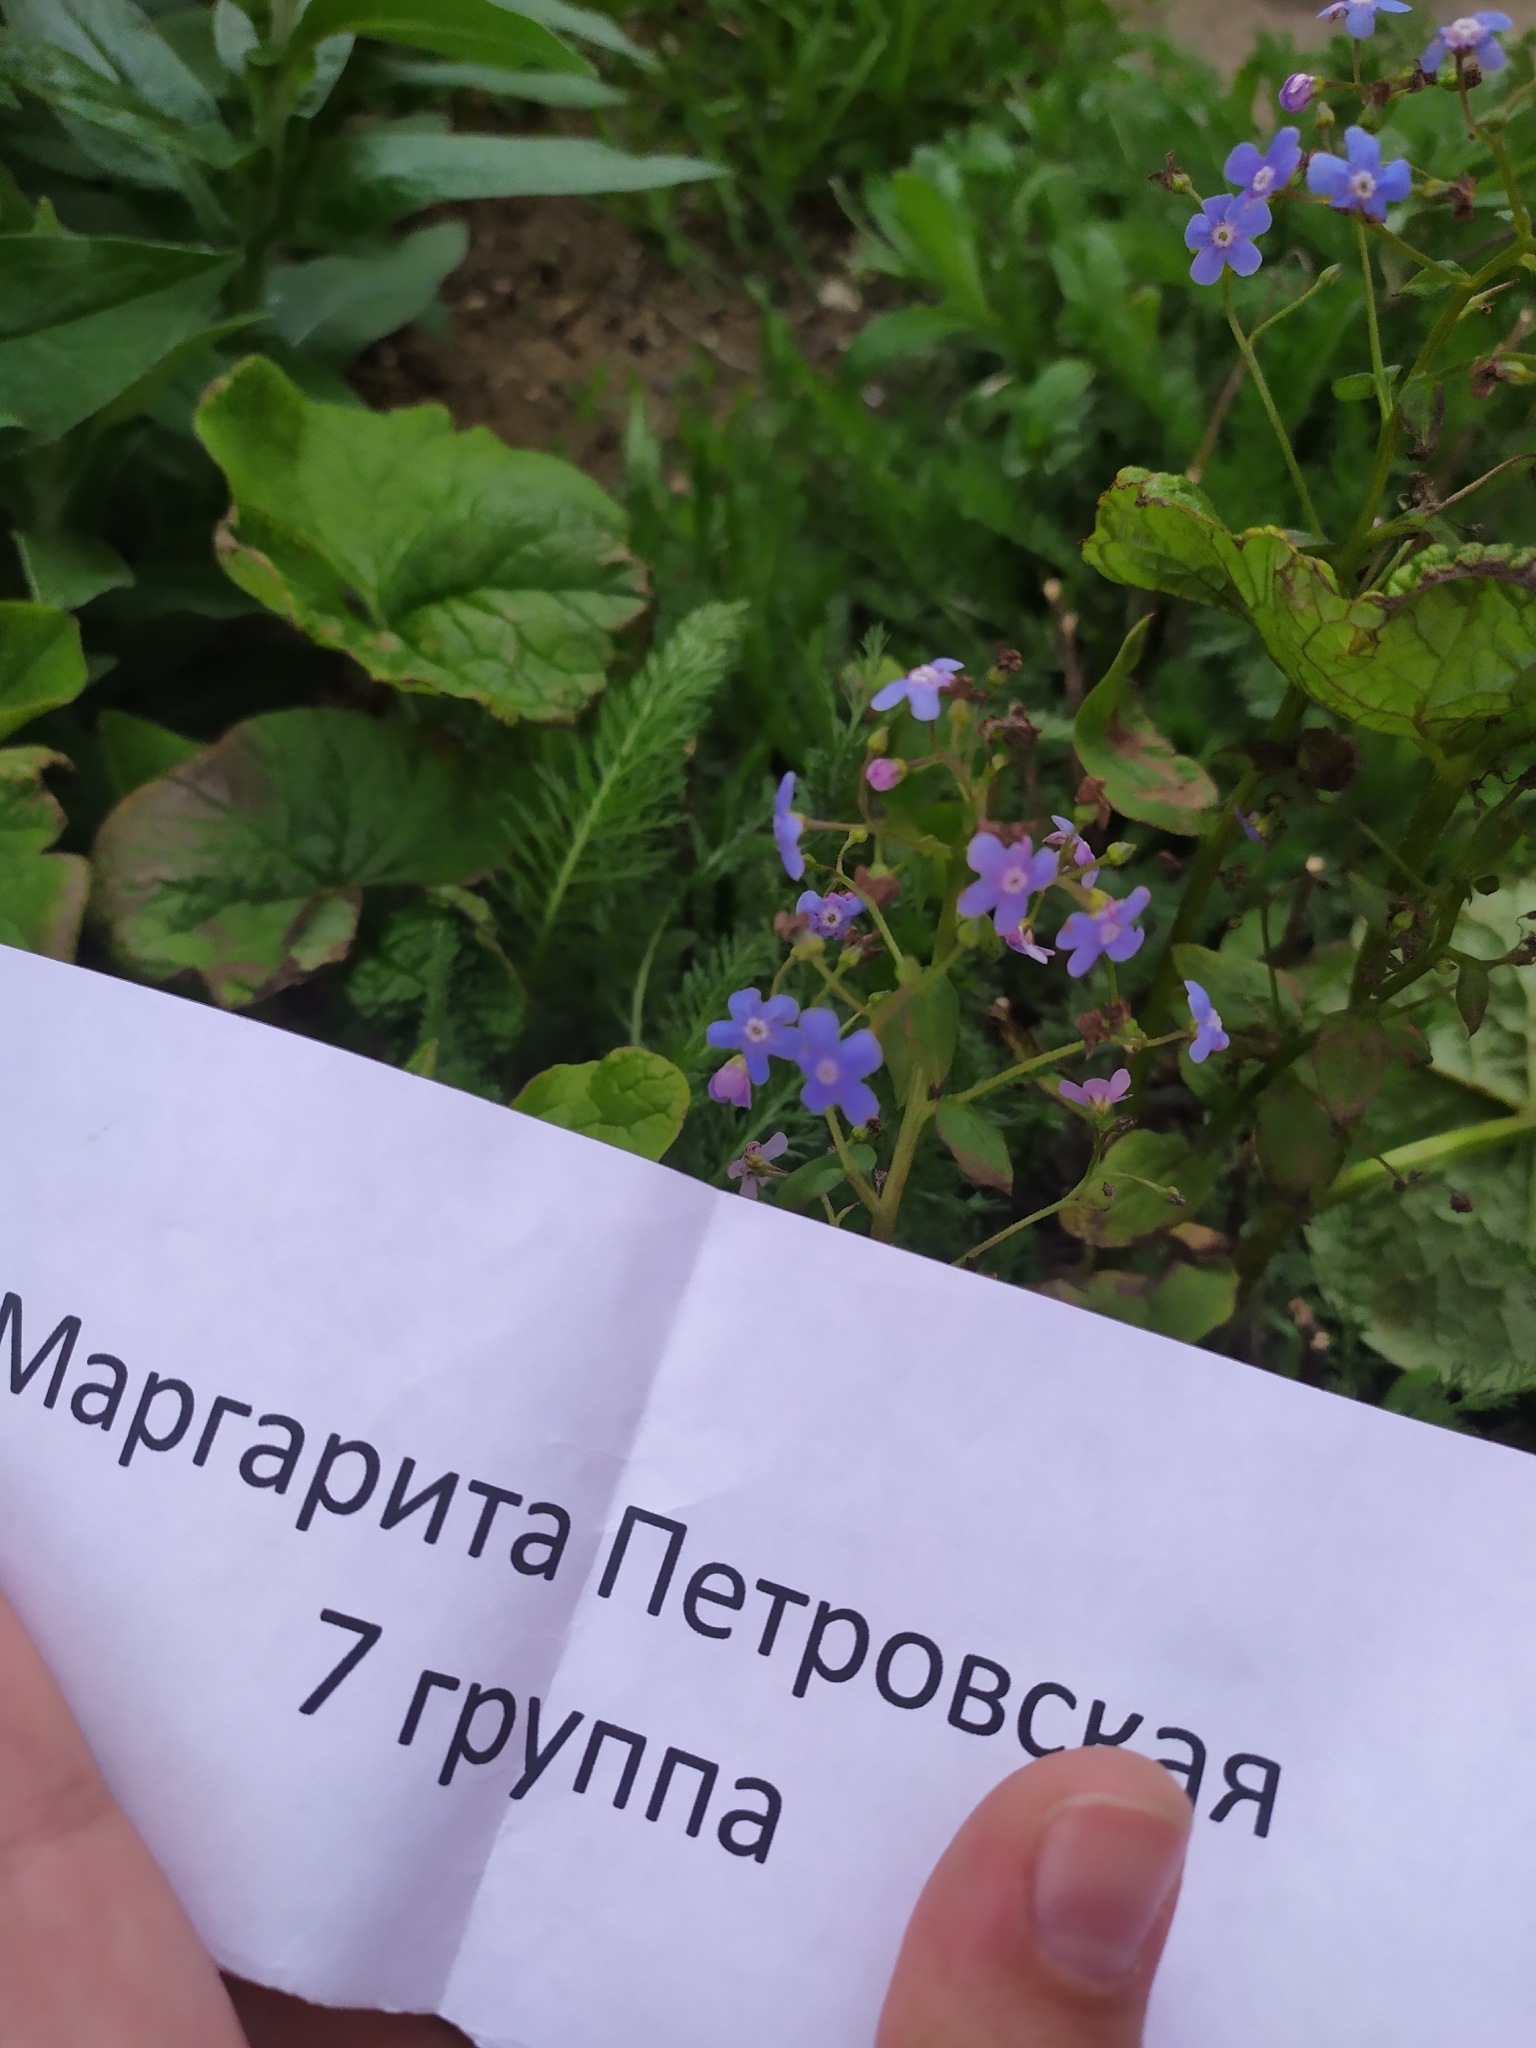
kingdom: Plantae
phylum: Tracheophyta
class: Magnoliopsida
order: Boraginales
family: Boraginaceae
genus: Brunnera
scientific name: Brunnera sibirica
